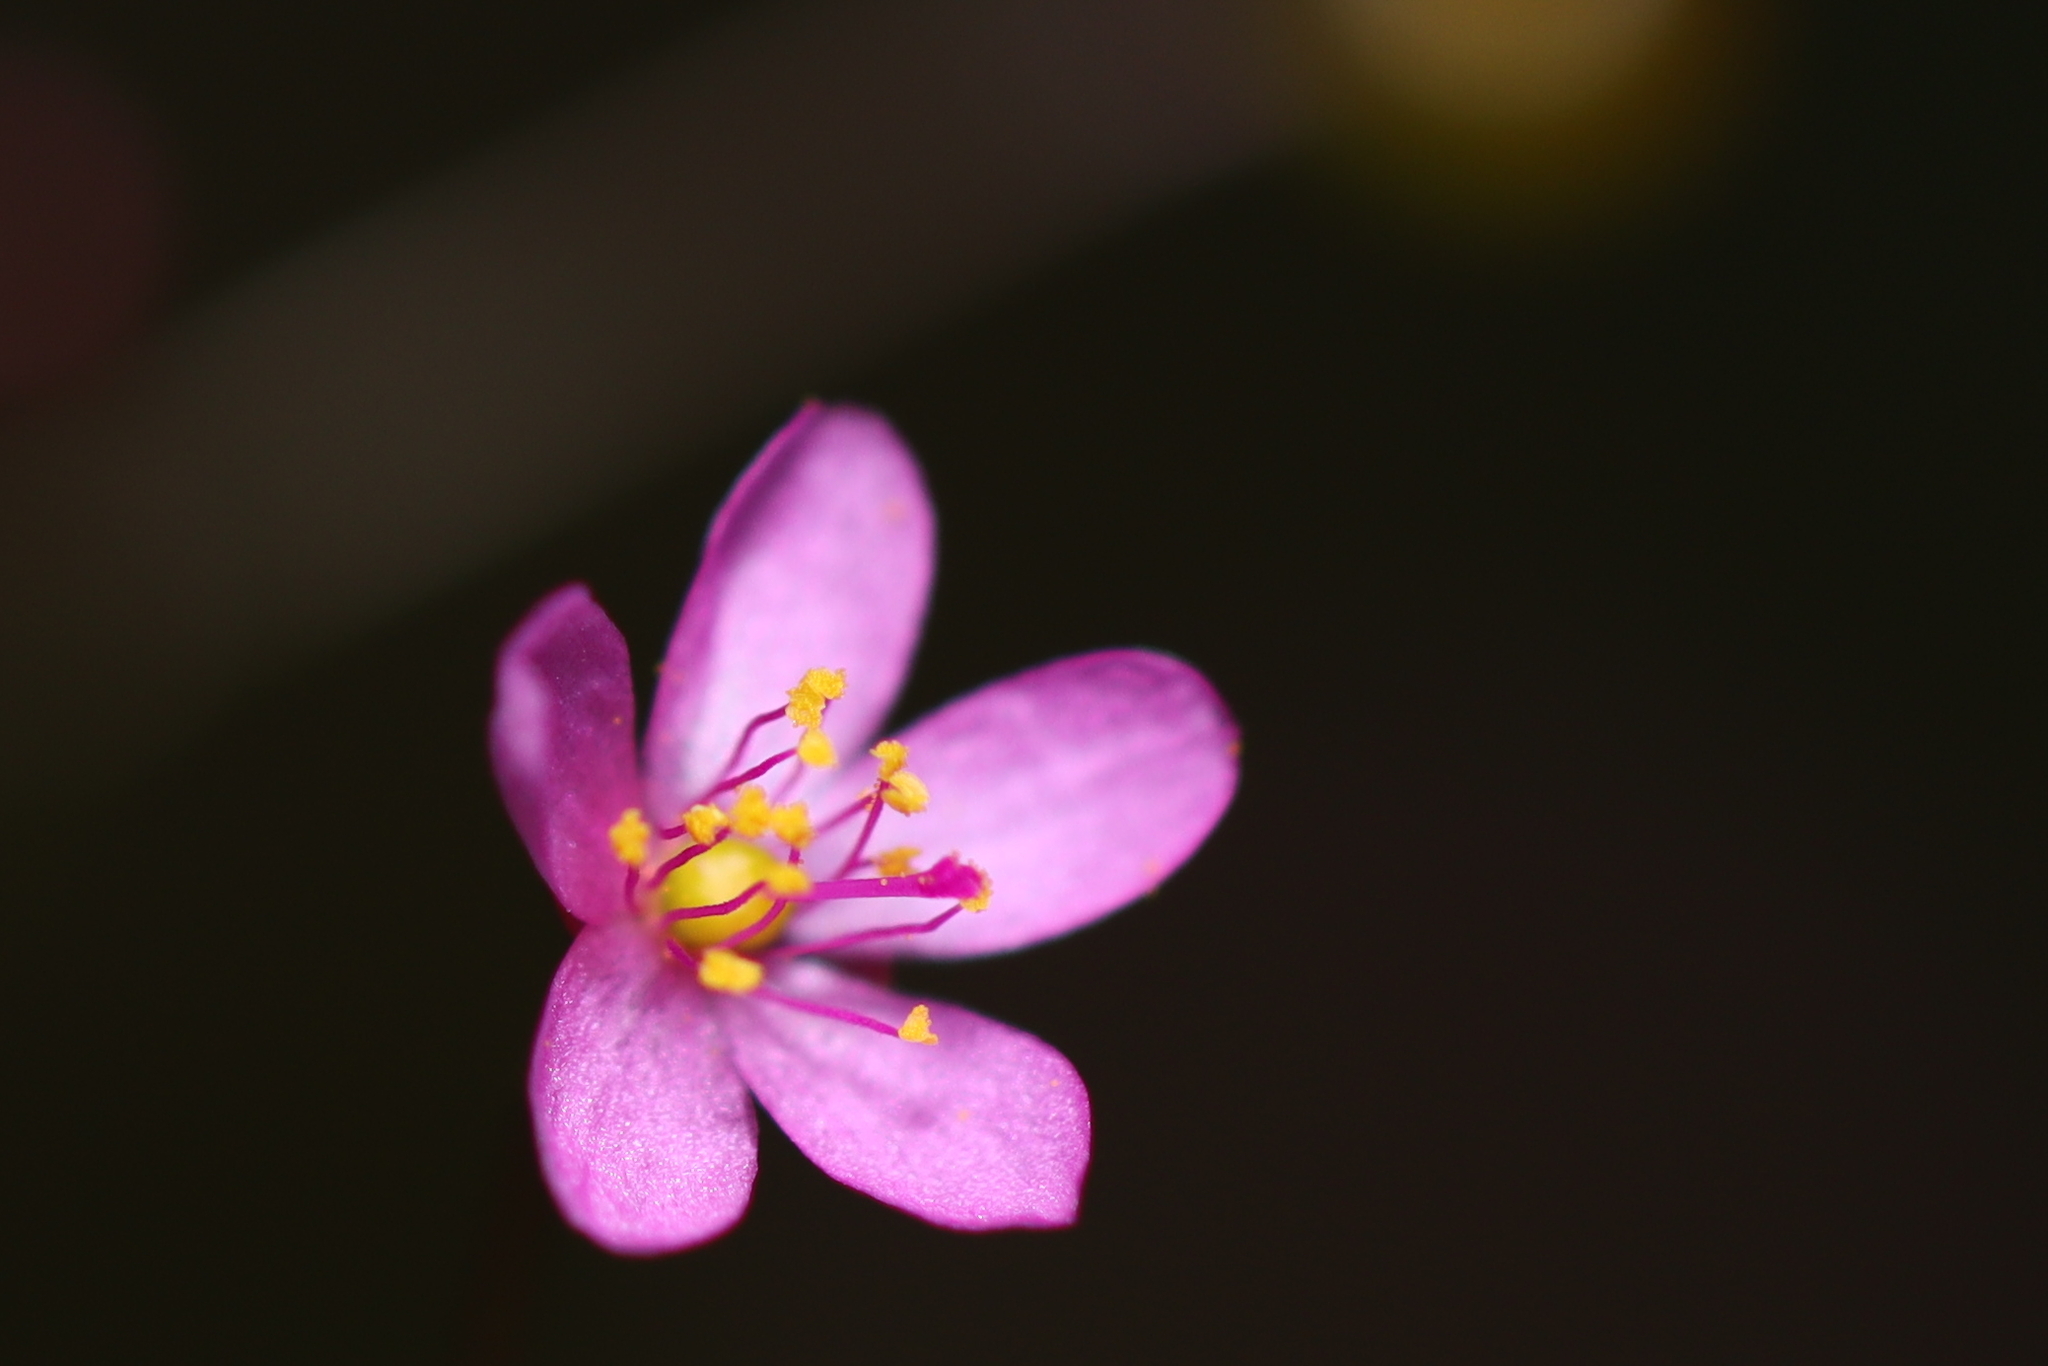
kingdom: Plantae
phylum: Tracheophyta
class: Magnoliopsida
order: Caryophyllales
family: Talinaceae
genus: Talinum
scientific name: Talinum paniculatum
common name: Jewels of opar
